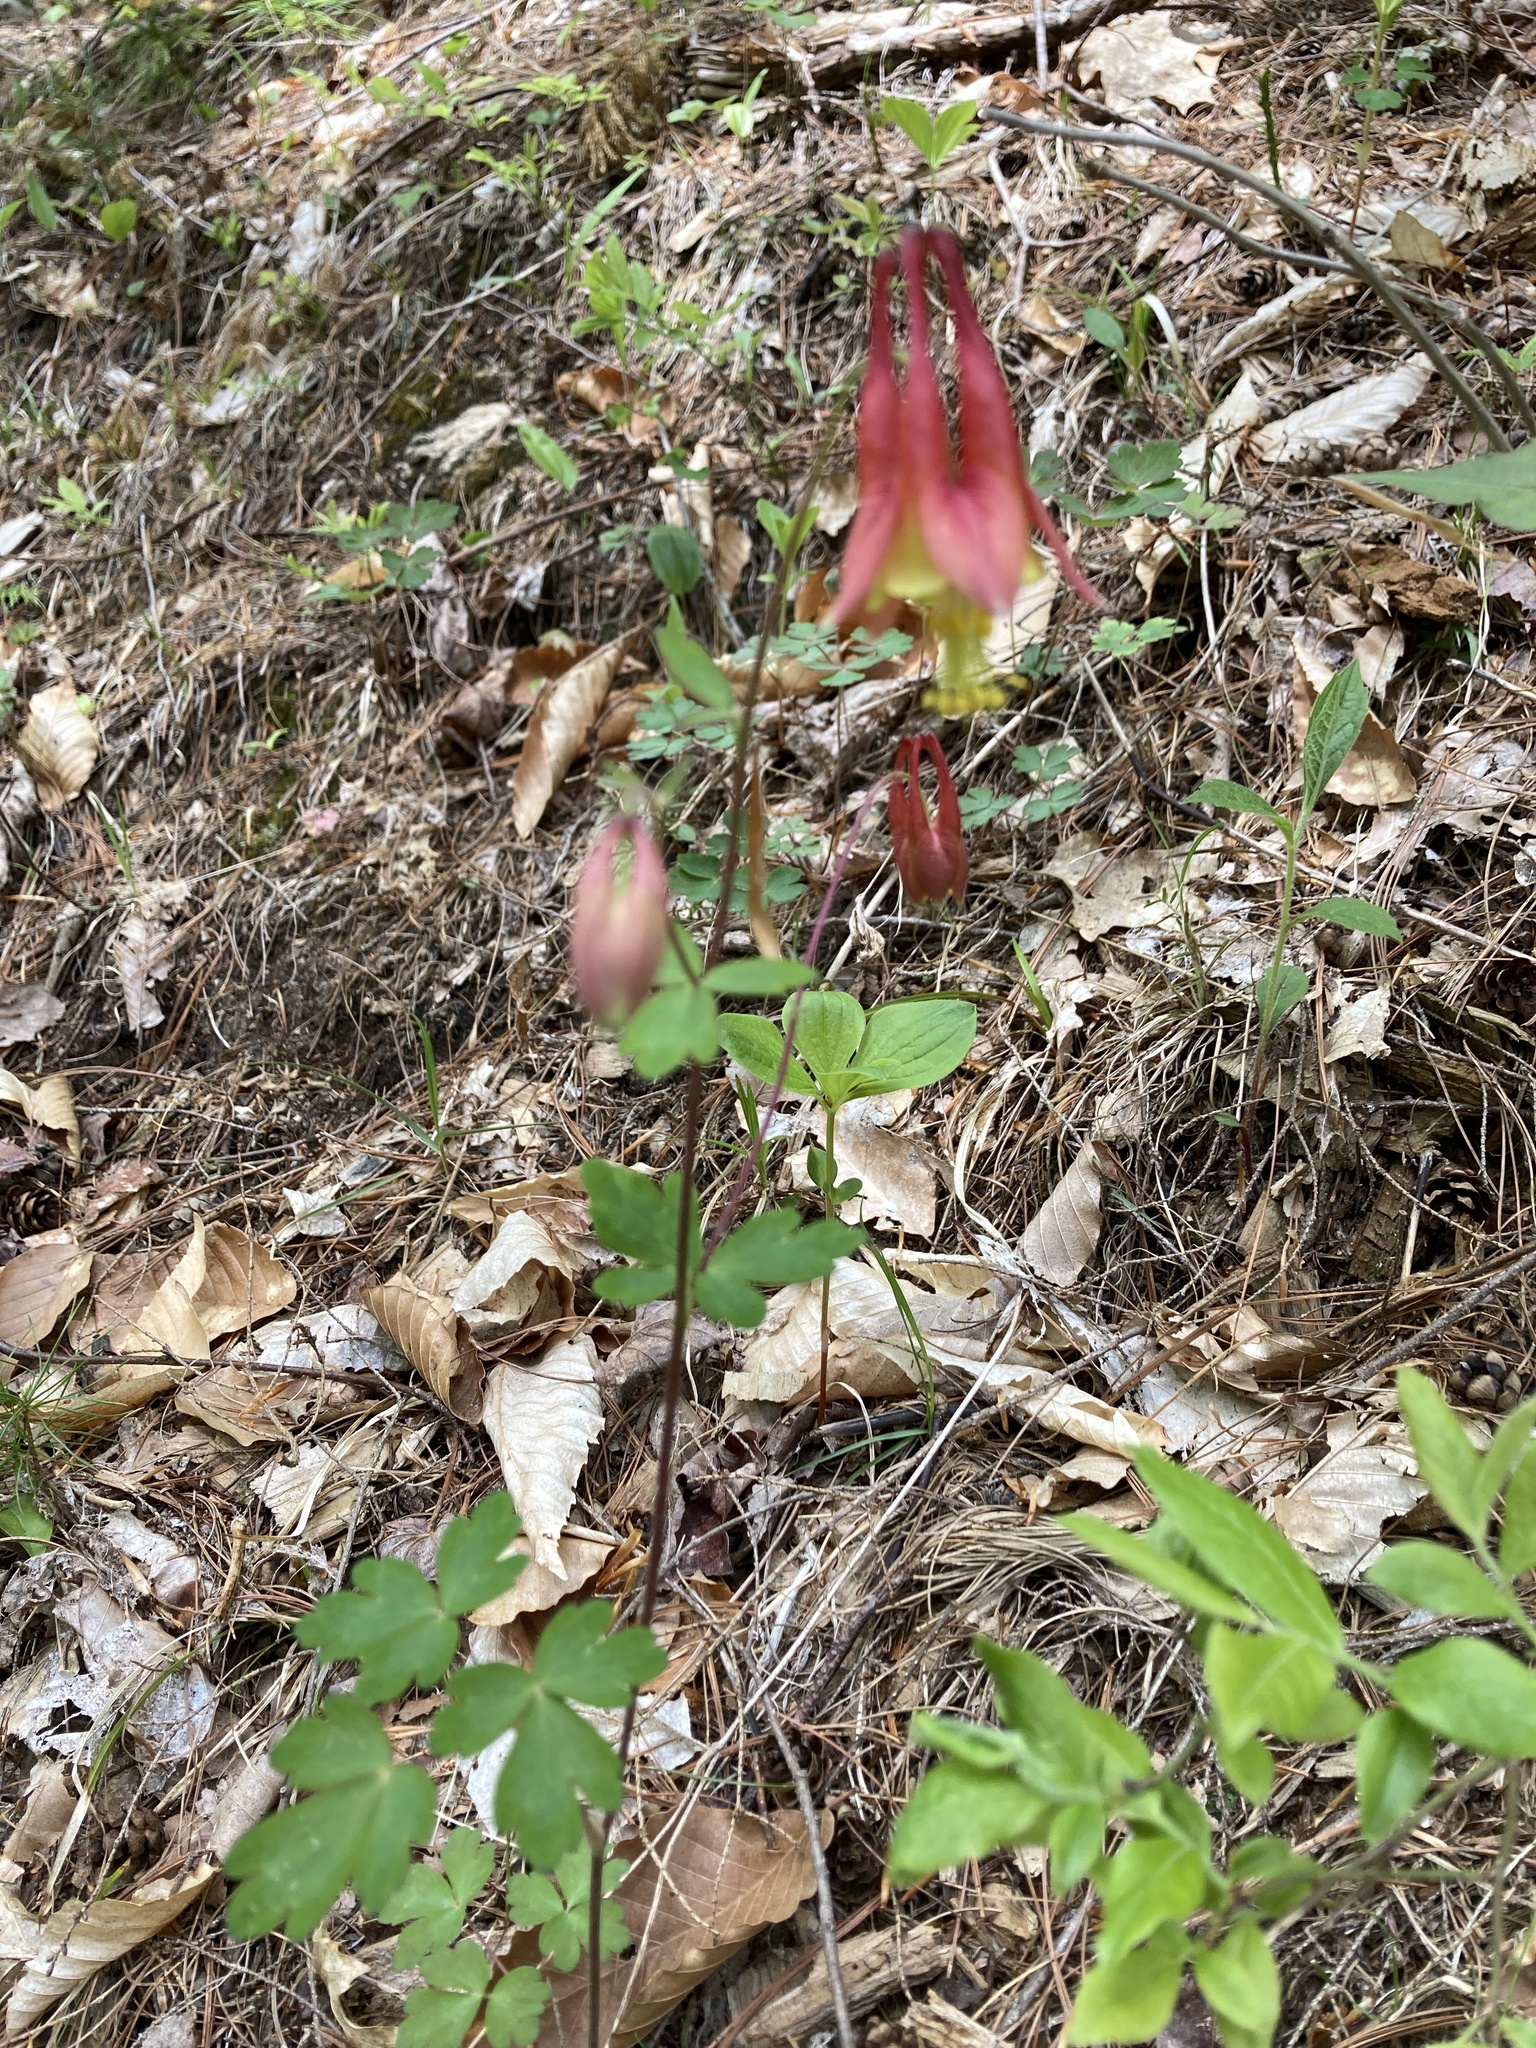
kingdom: Plantae
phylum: Tracheophyta
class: Magnoliopsida
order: Ranunculales
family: Ranunculaceae
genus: Aquilegia
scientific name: Aquilegia canadensis
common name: American columbine
